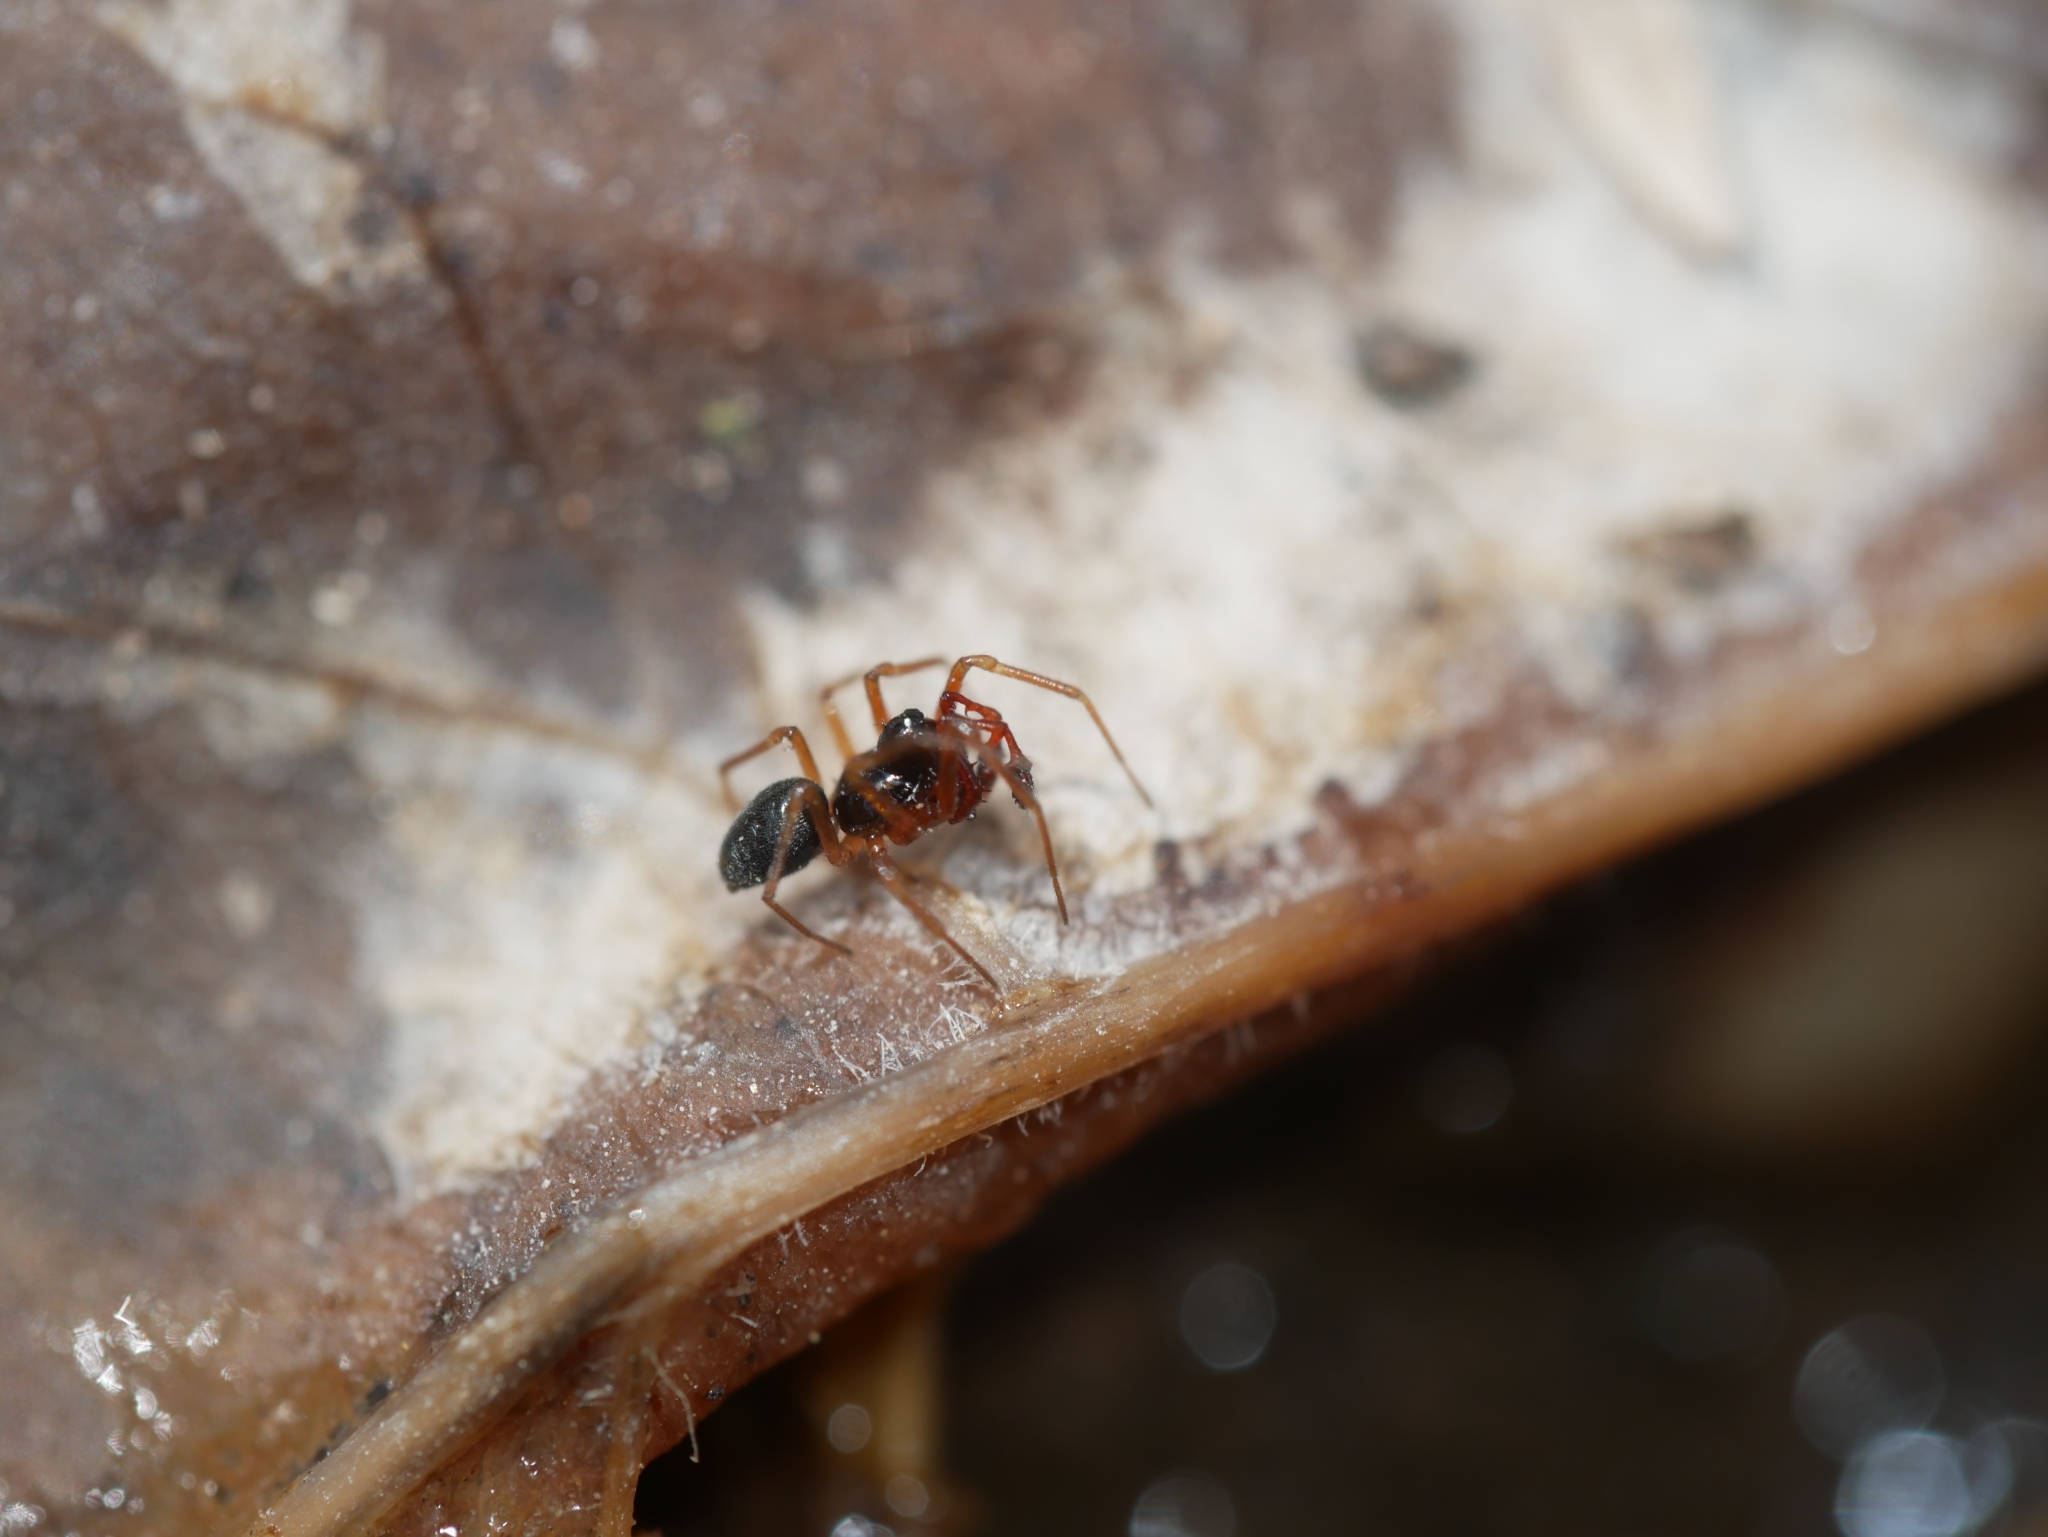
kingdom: Animalia
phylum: Arthropoda
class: Arachnida
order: Araneae
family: Linyphiidae
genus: Erigone
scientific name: Erigone dentosa
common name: Sheet-web spiders
